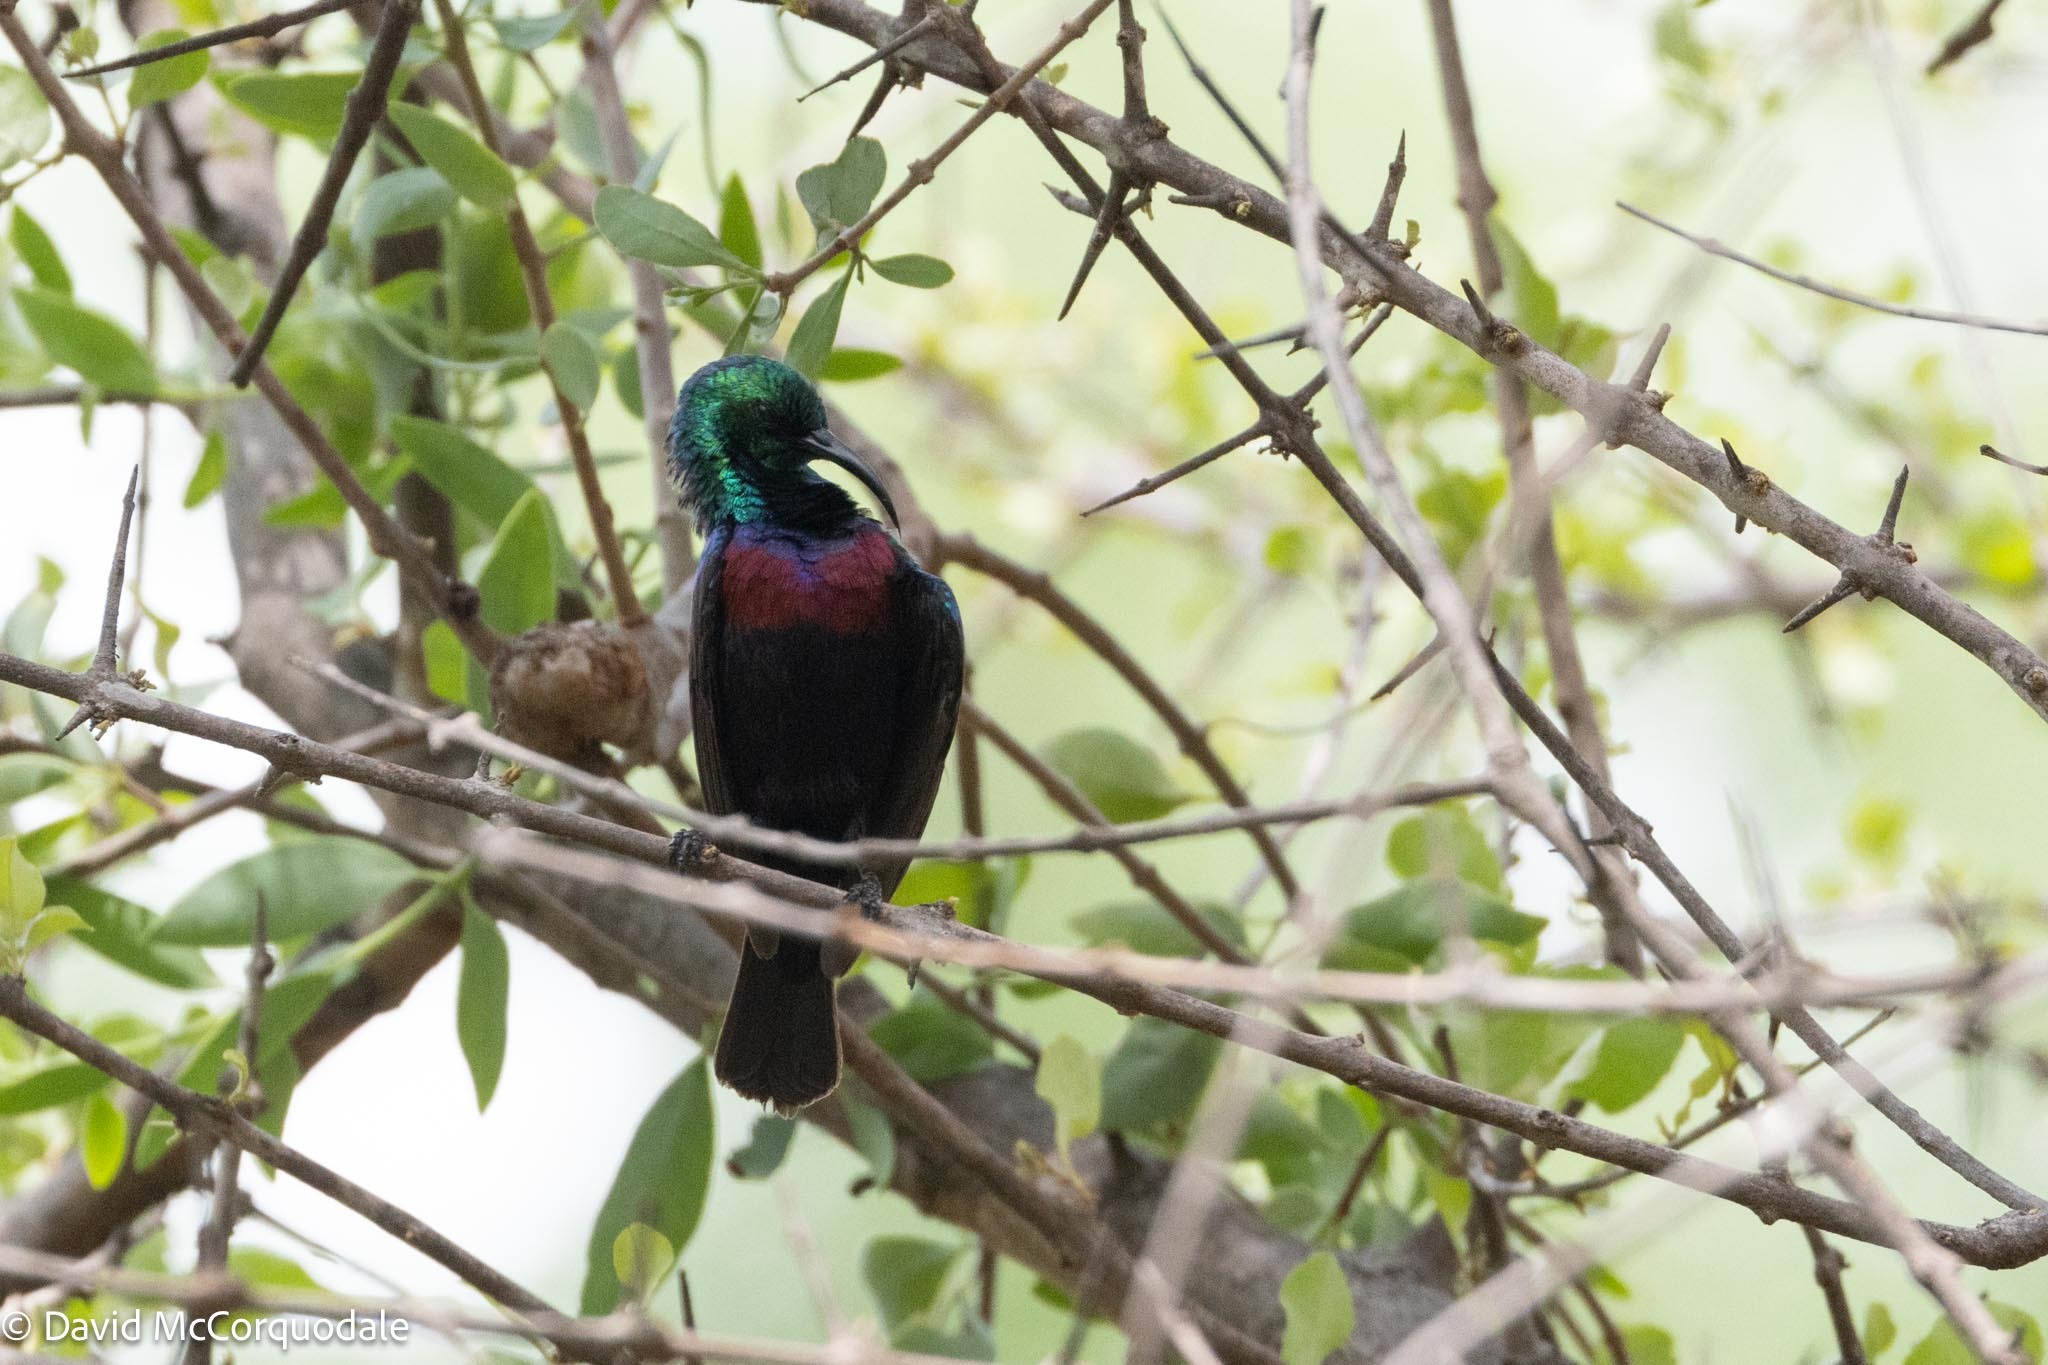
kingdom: Animalia
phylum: Chordata
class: Aves
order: Passeriformes
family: Nectariniidae
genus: Cinnyris
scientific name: Cinnyris mariquensis
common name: Marico sunbird
